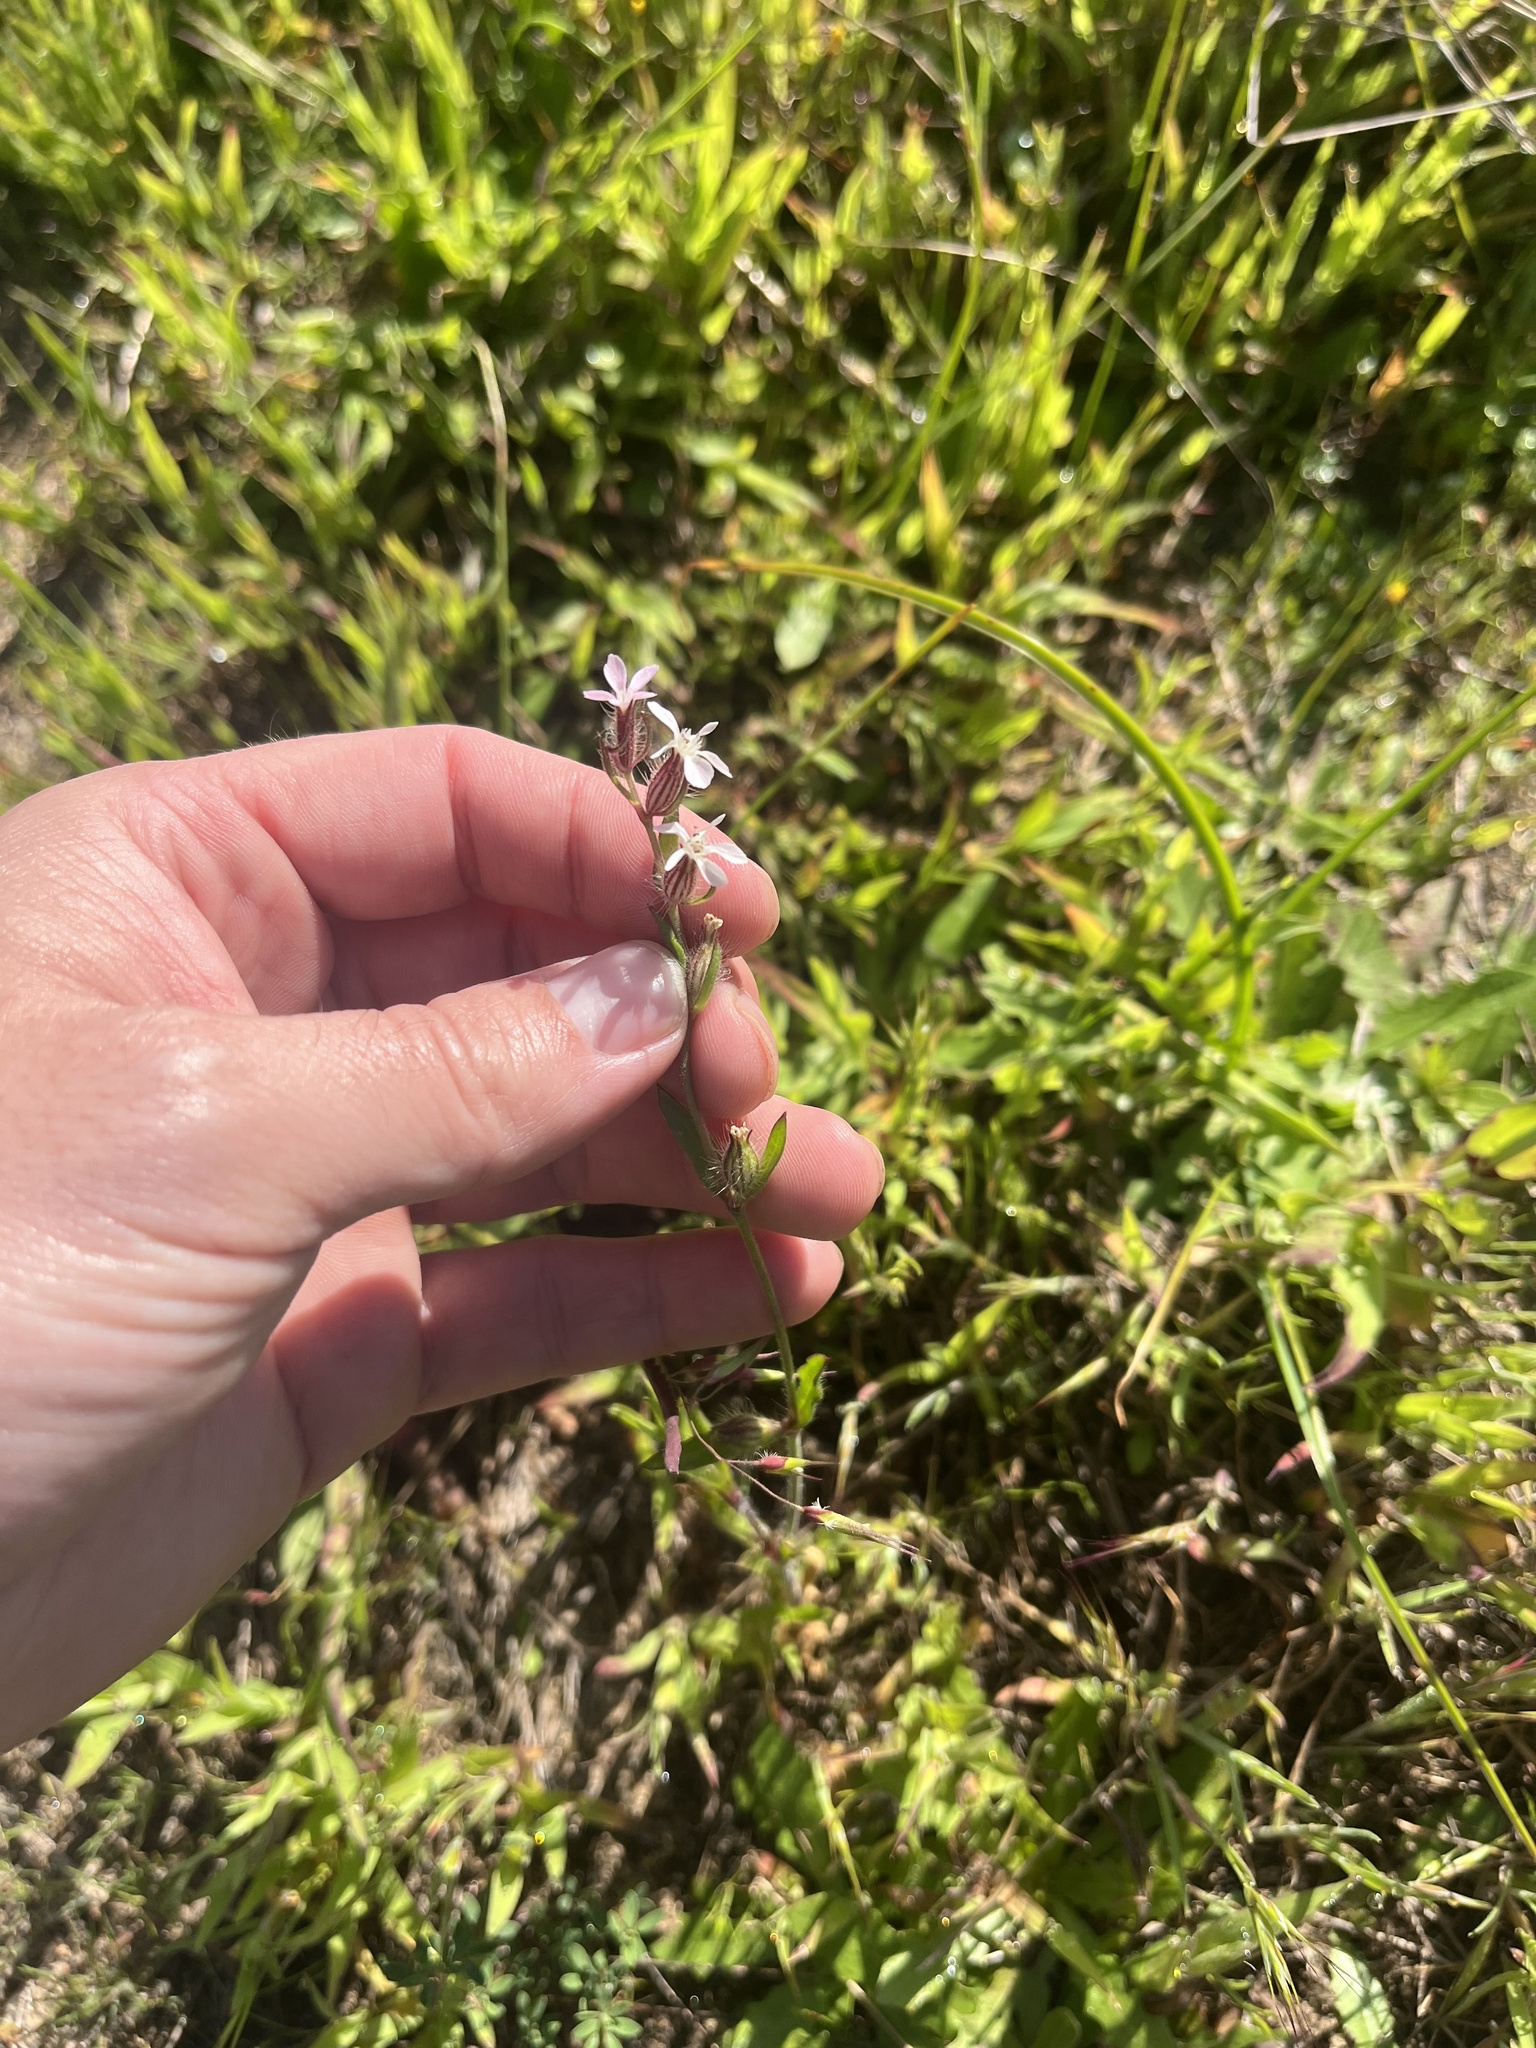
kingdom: Plantae
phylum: Tracheophyta
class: Magnoliopsida
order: Caryophyllales
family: Caryophyllaceae
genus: Silene
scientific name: Silene gallica
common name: Small-flowered catchfly
